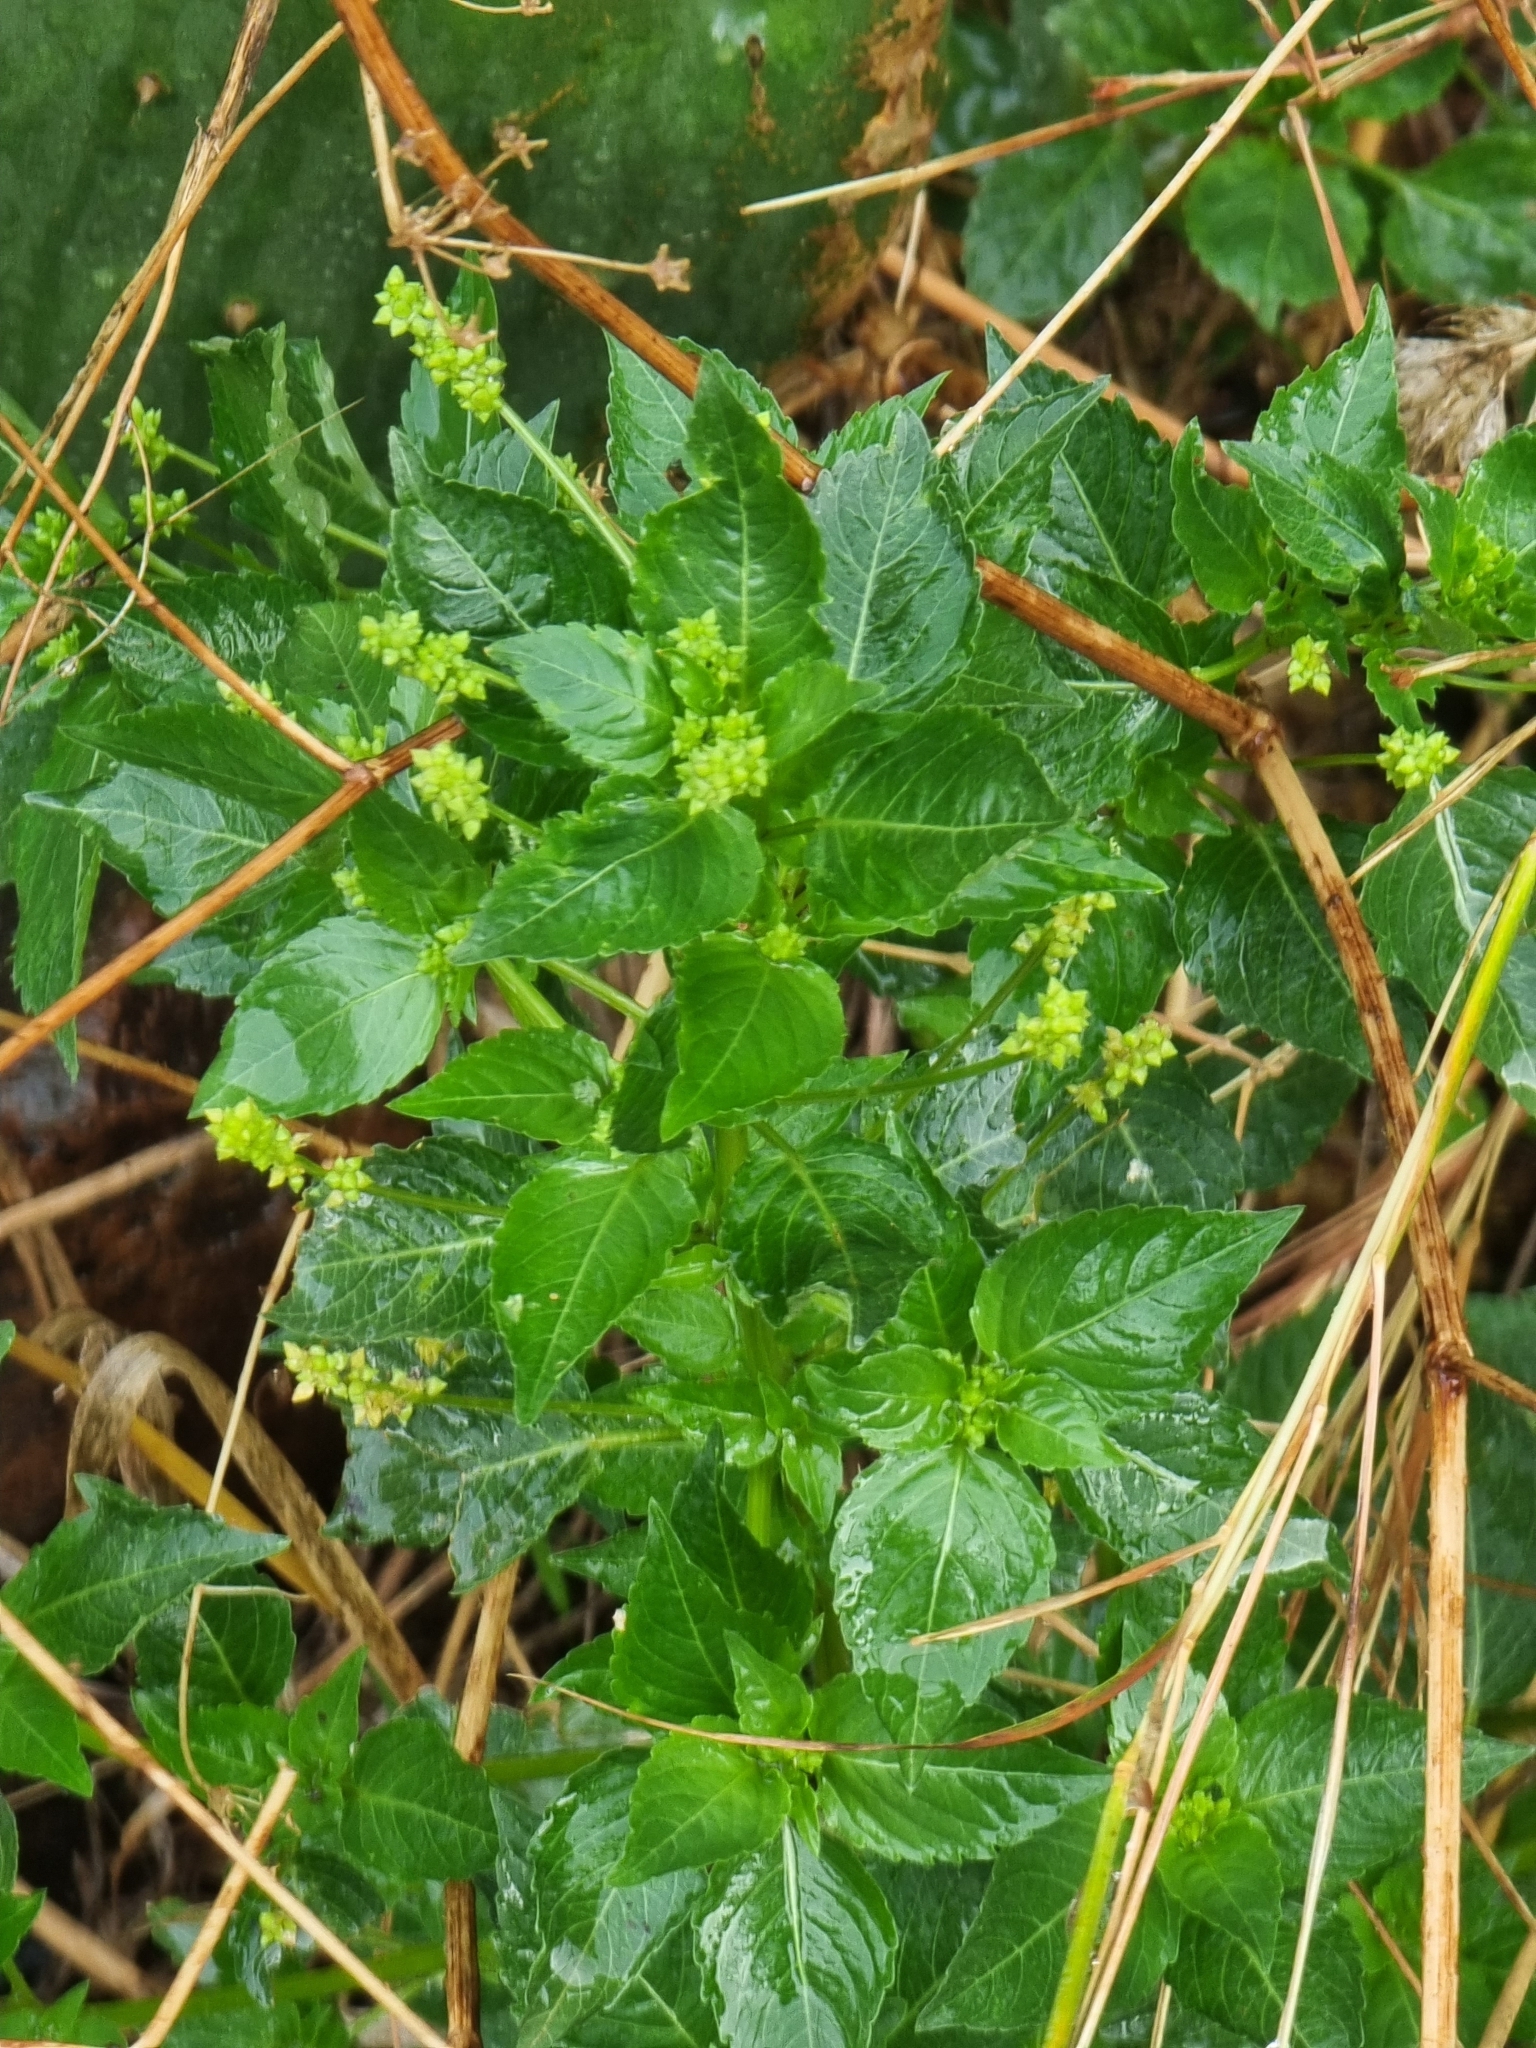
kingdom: Plantae
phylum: Tracheophyta
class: Magnoliopsida
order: Malpighiales
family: Euphorbiaceae
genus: Mercurialis
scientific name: Mercurialis annua
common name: Annual mercury
